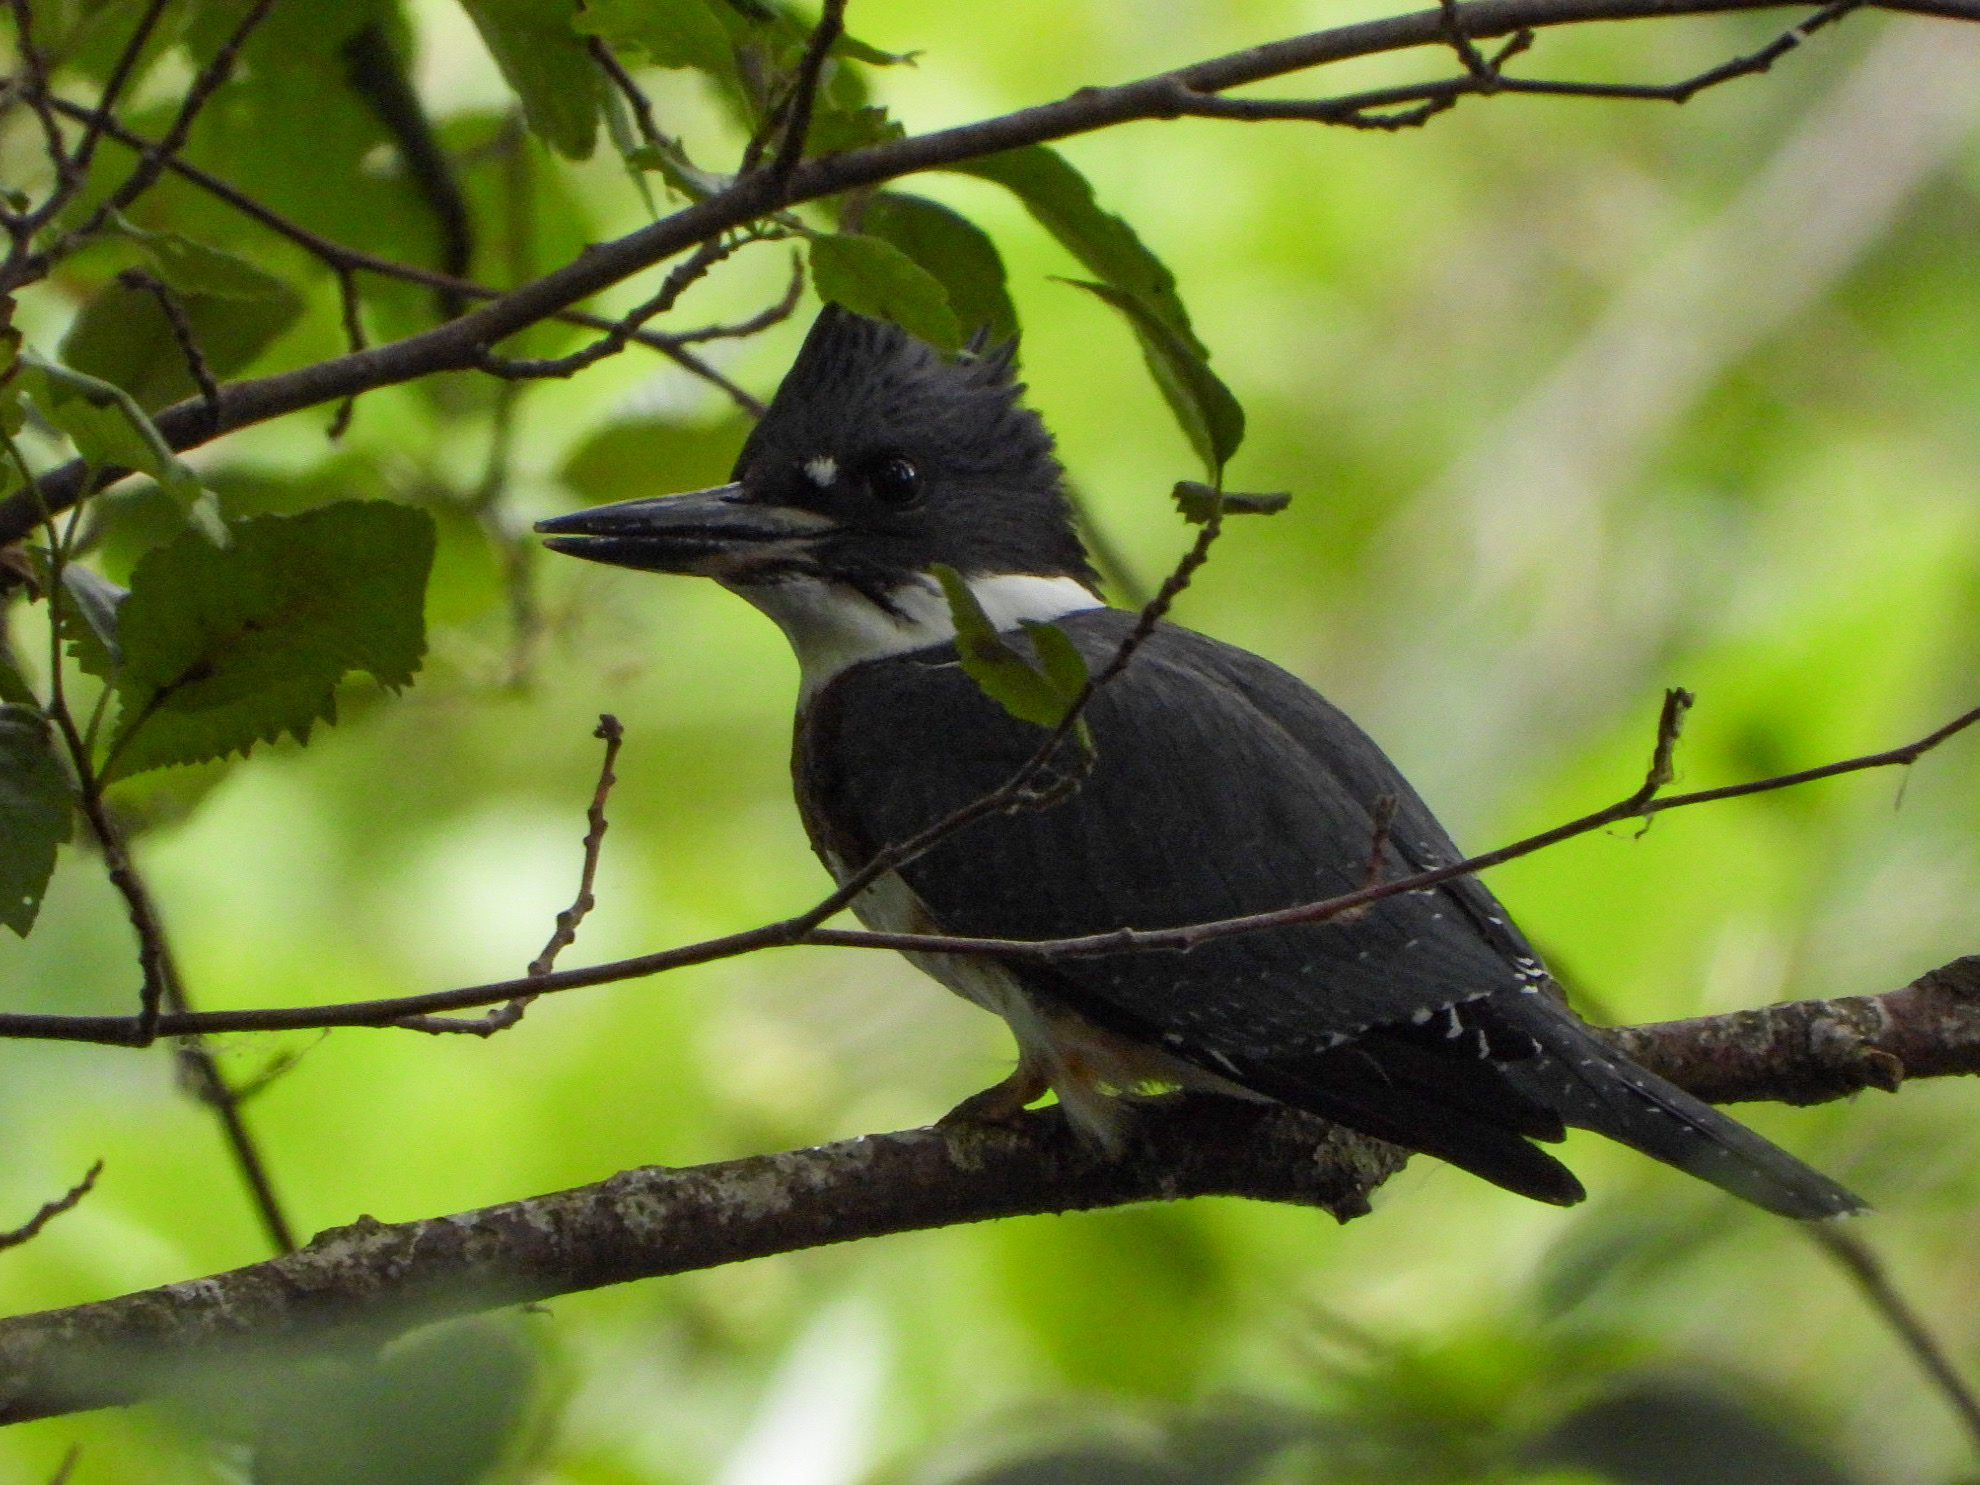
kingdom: Animalia
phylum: Chordata
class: Aves
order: Coraciiformes
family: Alcedinidae
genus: Megaceryle
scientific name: Megaceryle alcyon
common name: Belted kingfisher
